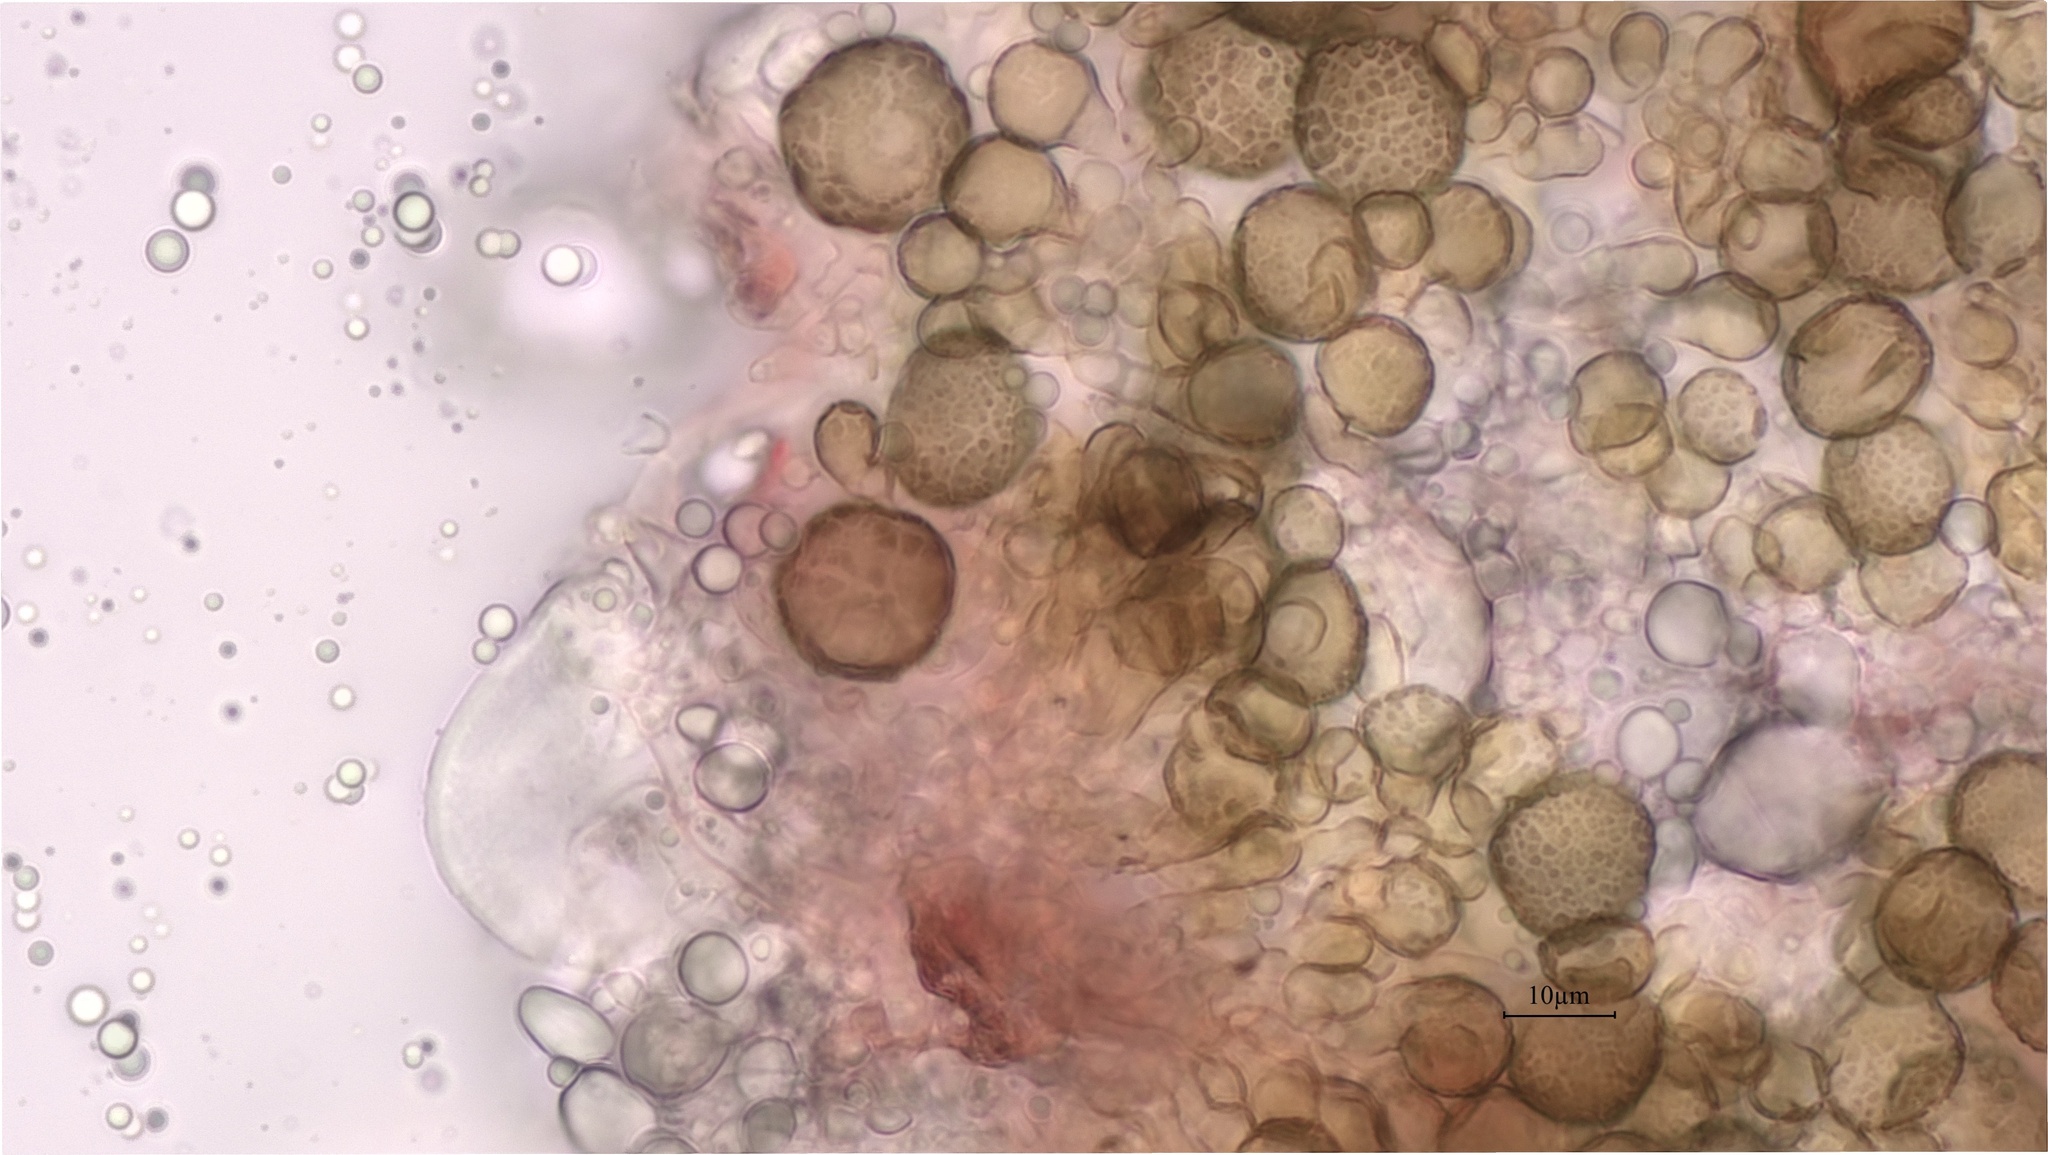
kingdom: Fungi
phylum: Ascomycota
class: Dothideomycetes
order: Pleosporales
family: Didymellaceae
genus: Epicoccum
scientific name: Epicoccum nigrum
